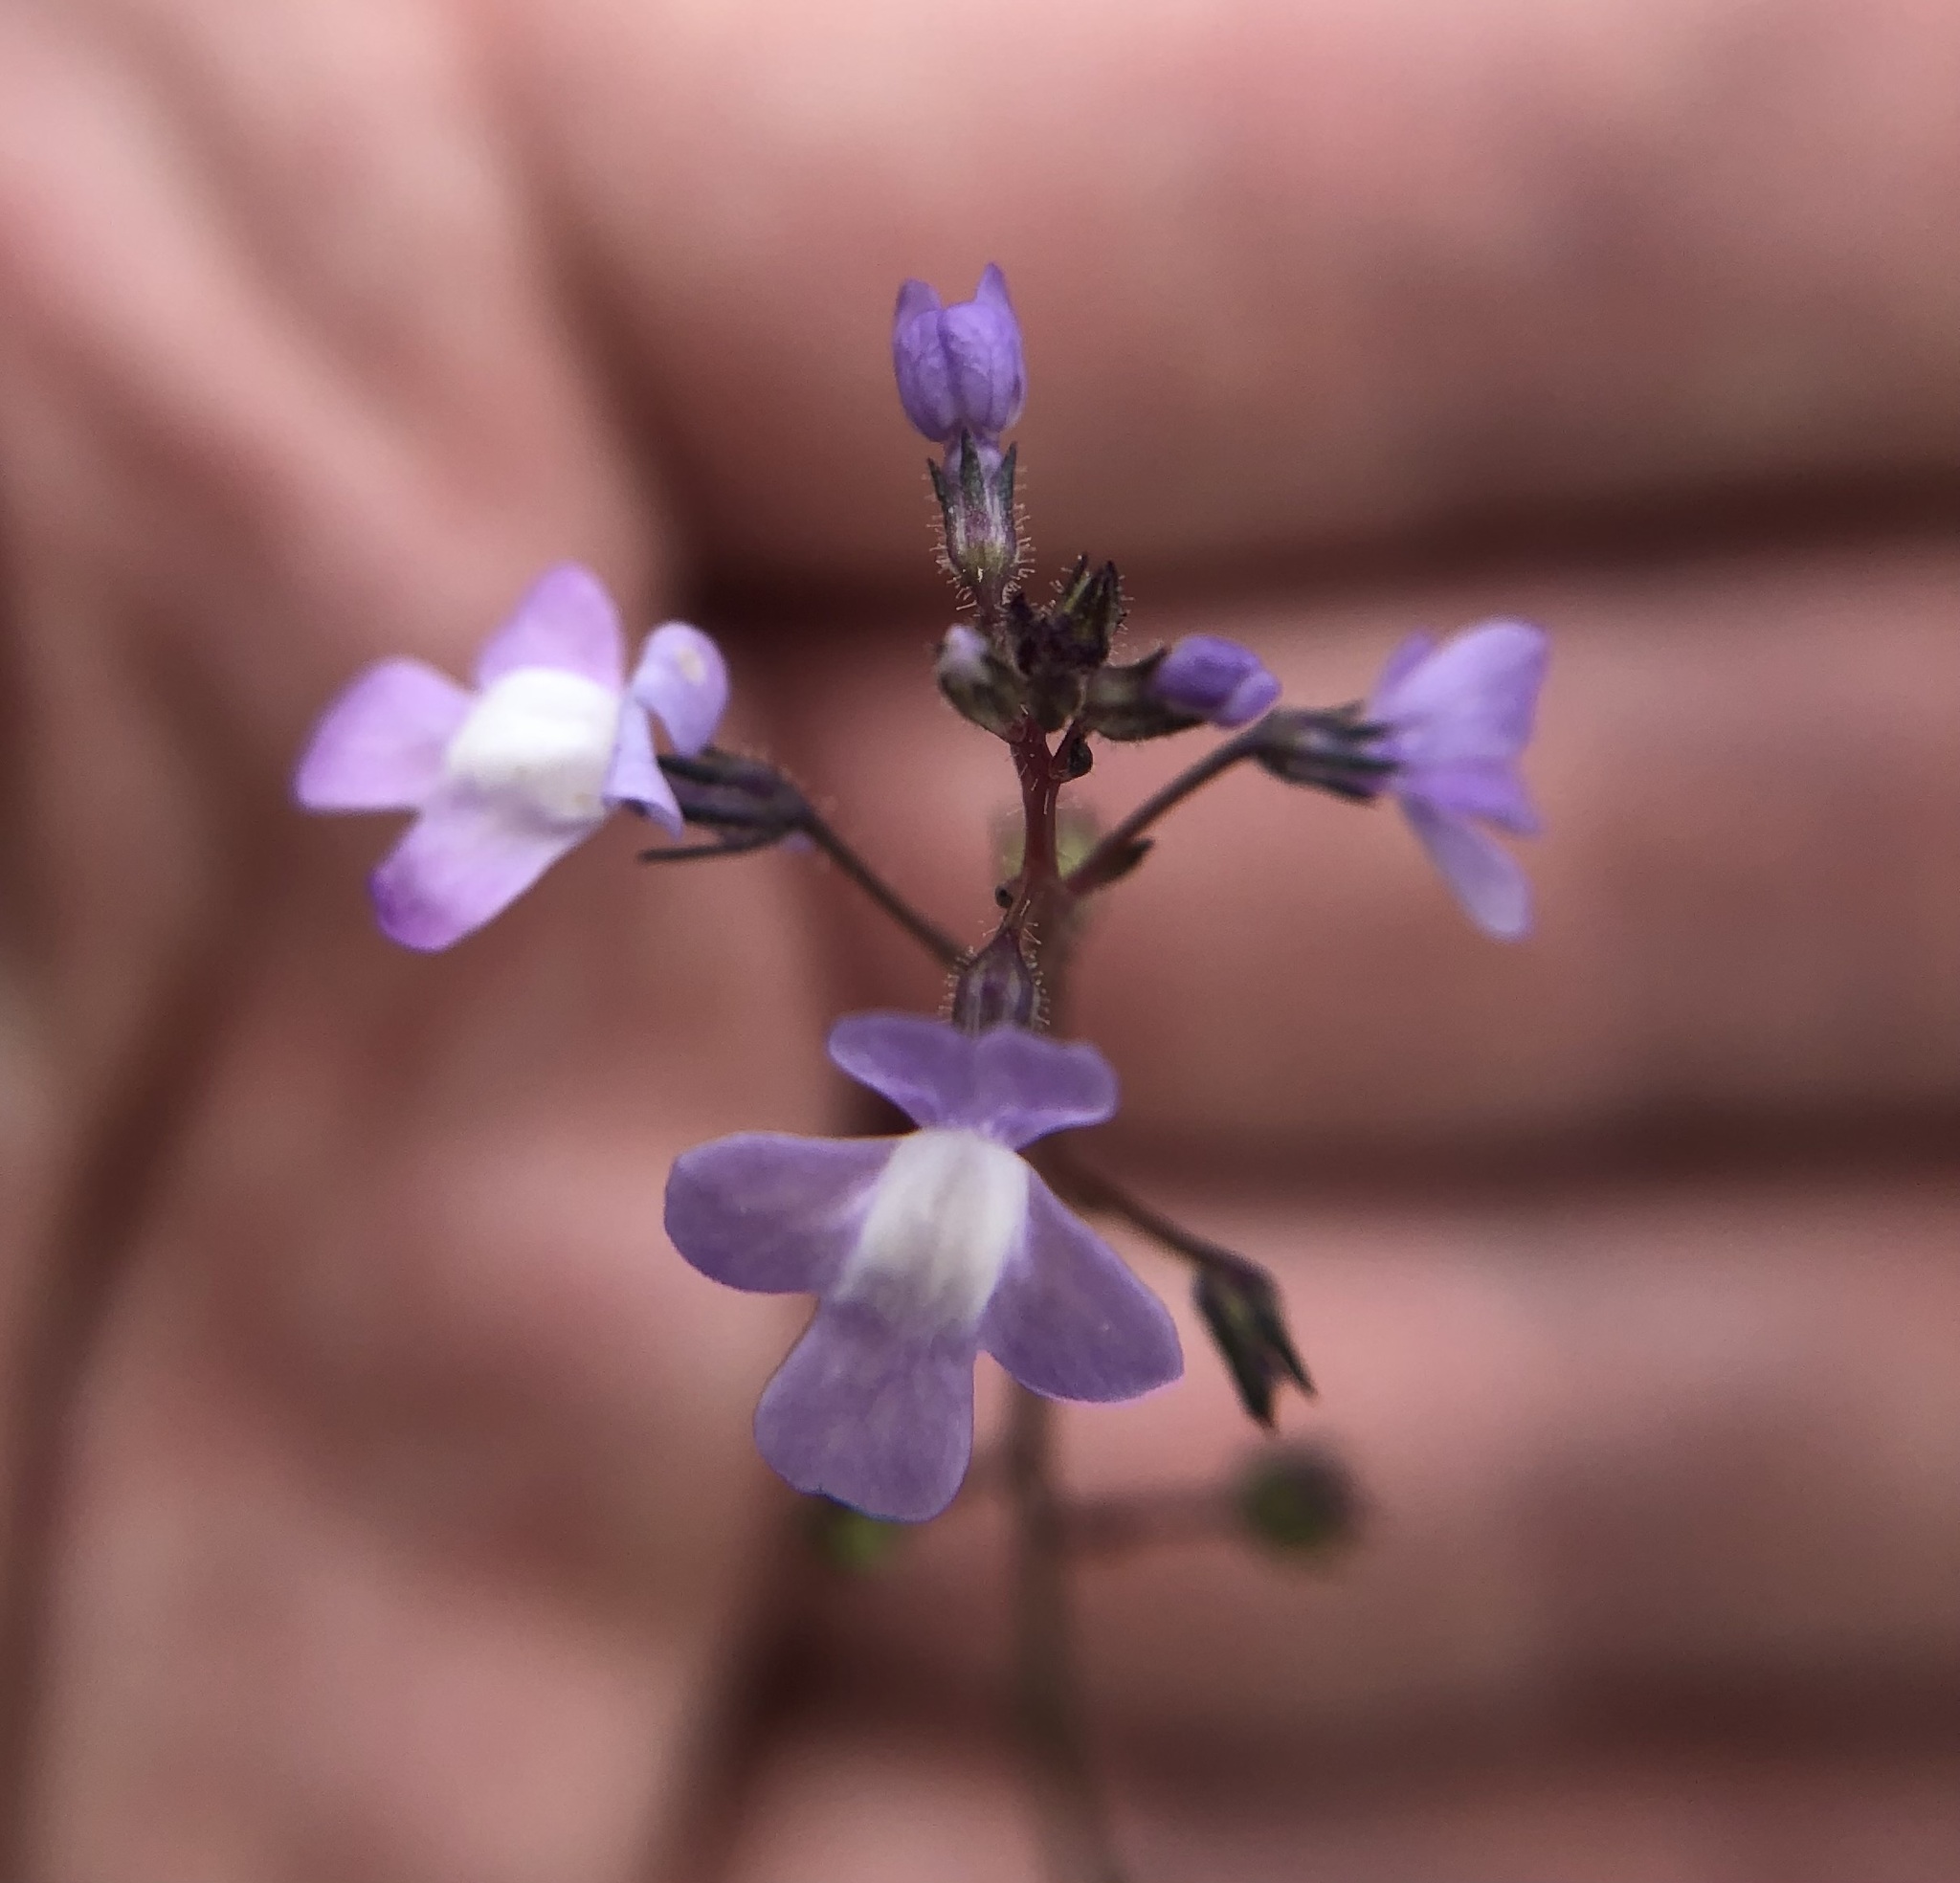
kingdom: Plantae
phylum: Tracheophyta
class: Magnoliopsida
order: Lamiales
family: Plantaginaceae
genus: Nuttallanthus
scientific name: Nuttallanthus floridanus
